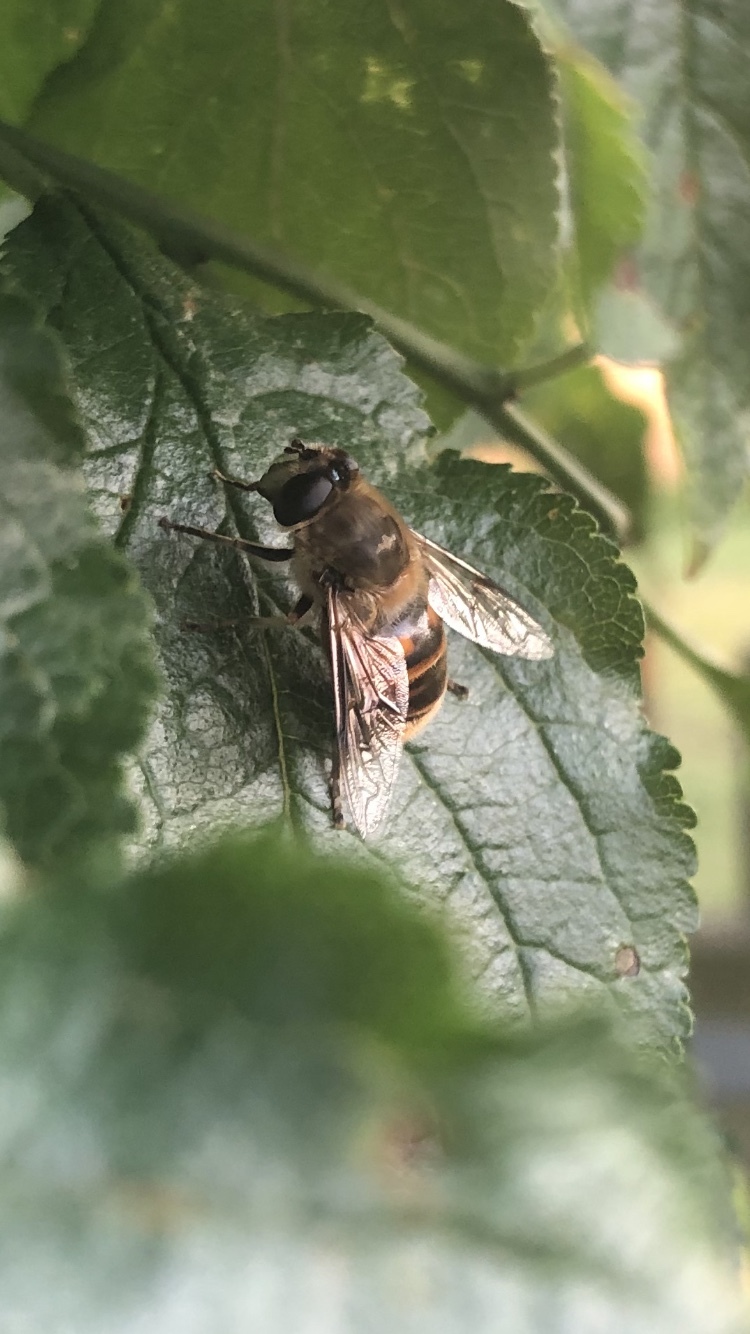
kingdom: Animalia
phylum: Arthropoda
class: Insecta
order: Diptera
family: Syrphidae
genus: Eristalis
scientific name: Eristalis tenax
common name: Drone fly
